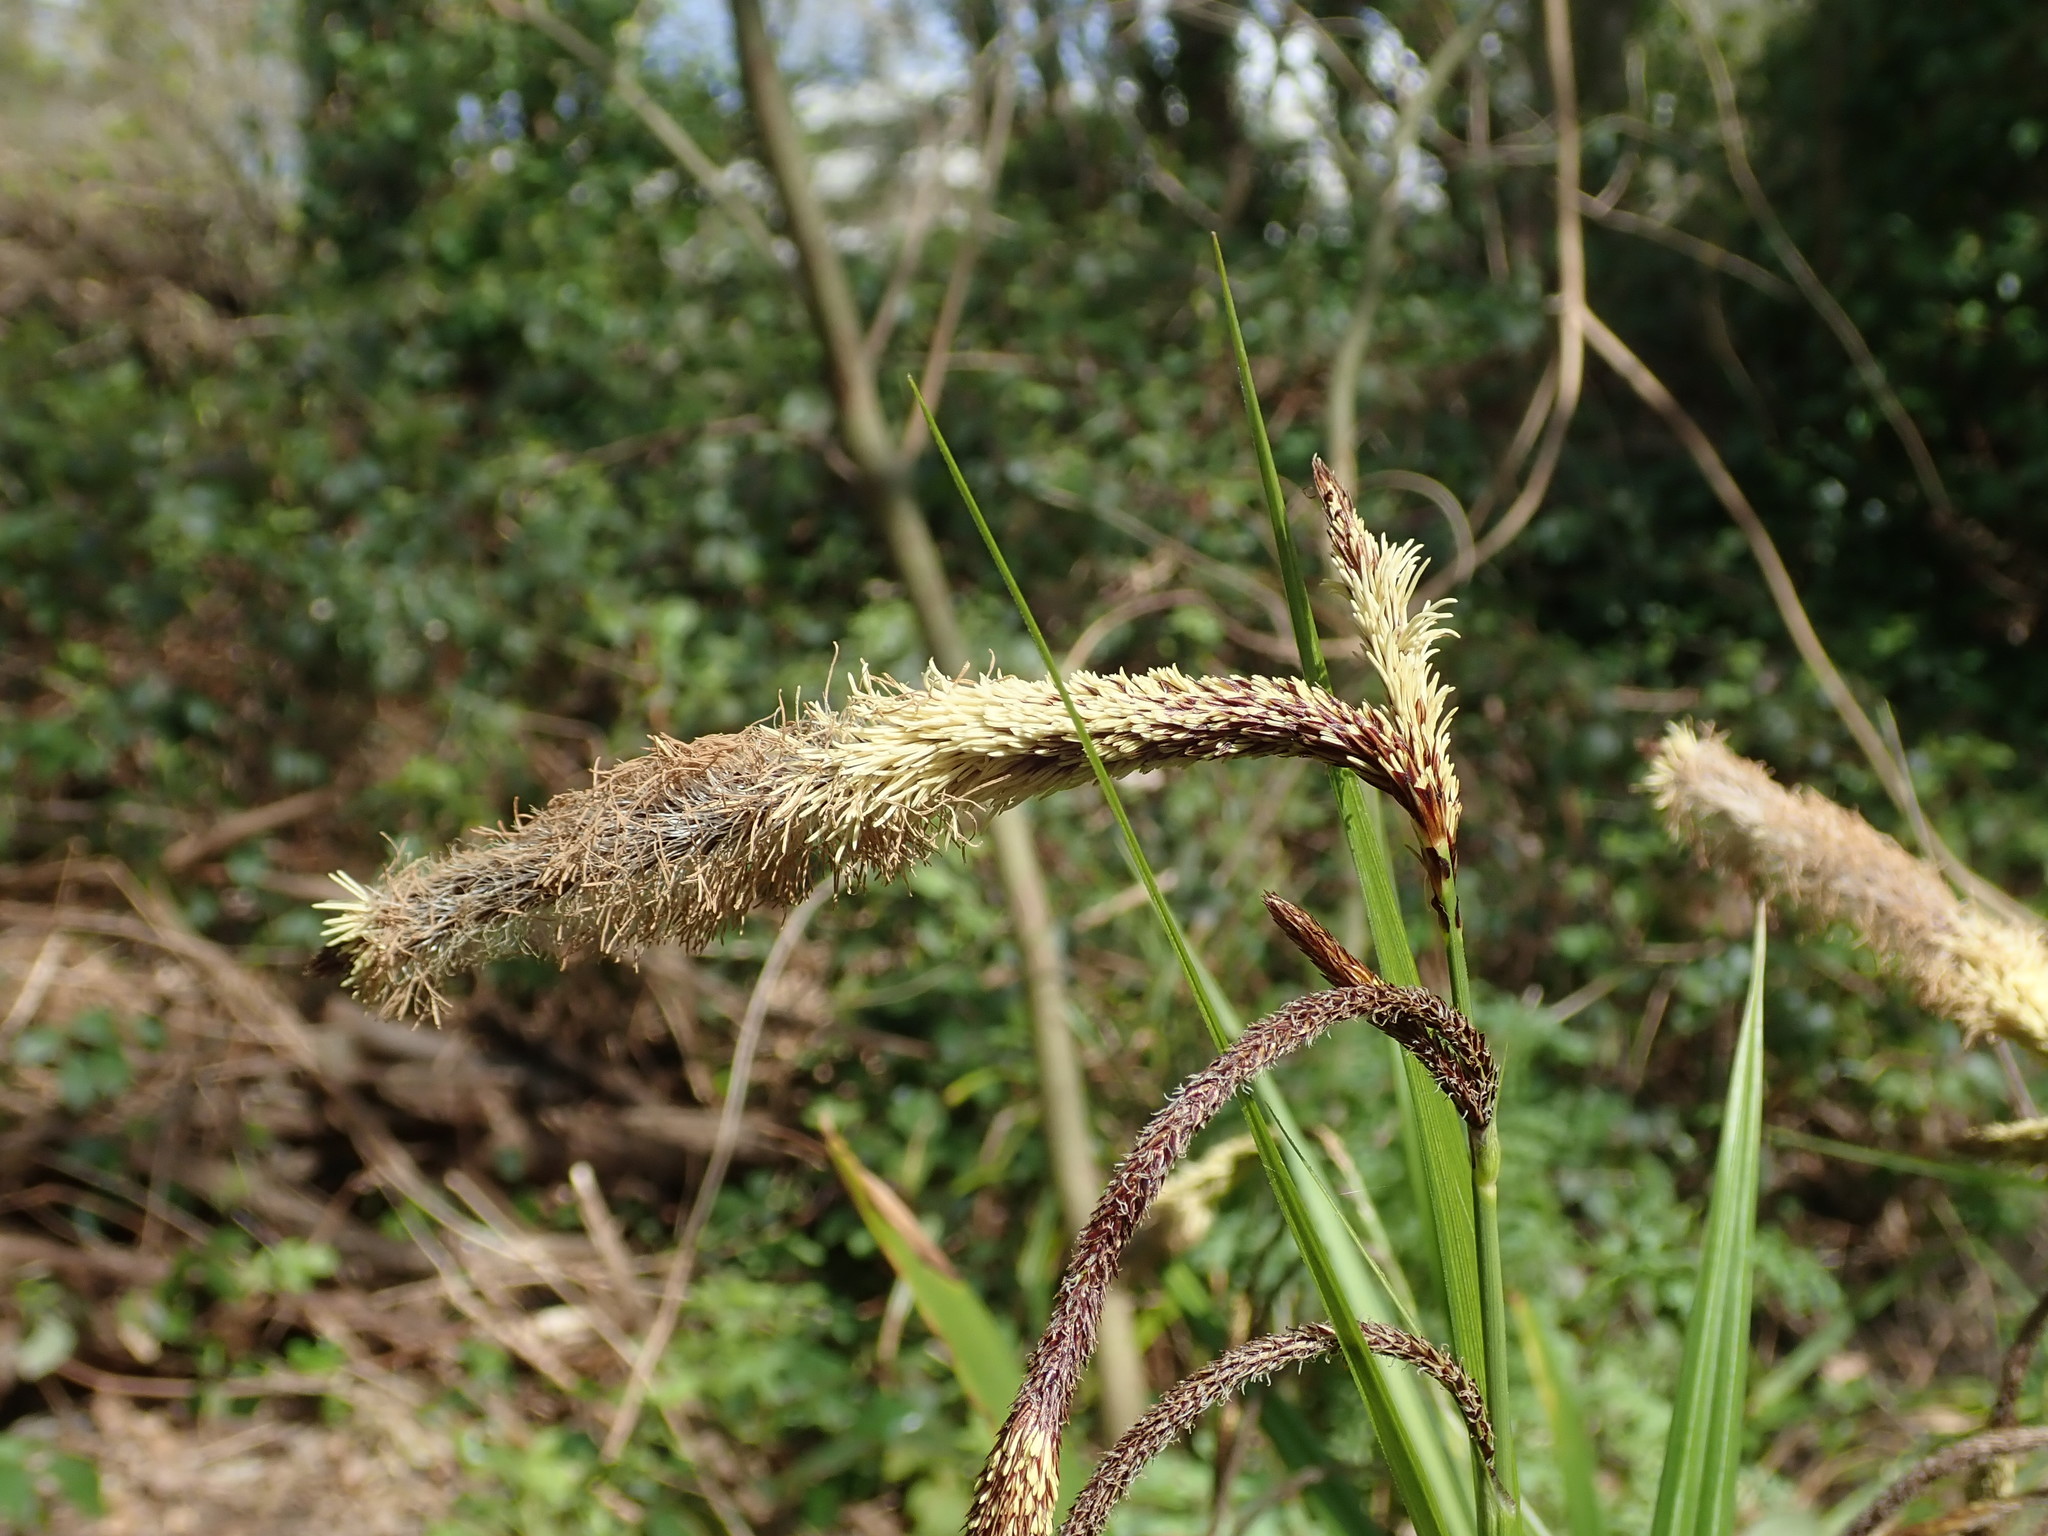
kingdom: Plantae
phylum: Tracheophyta
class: Liliopsida
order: Poales
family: Cyperaceae
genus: Carex
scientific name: Carex pendula
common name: Pendulous sedge
